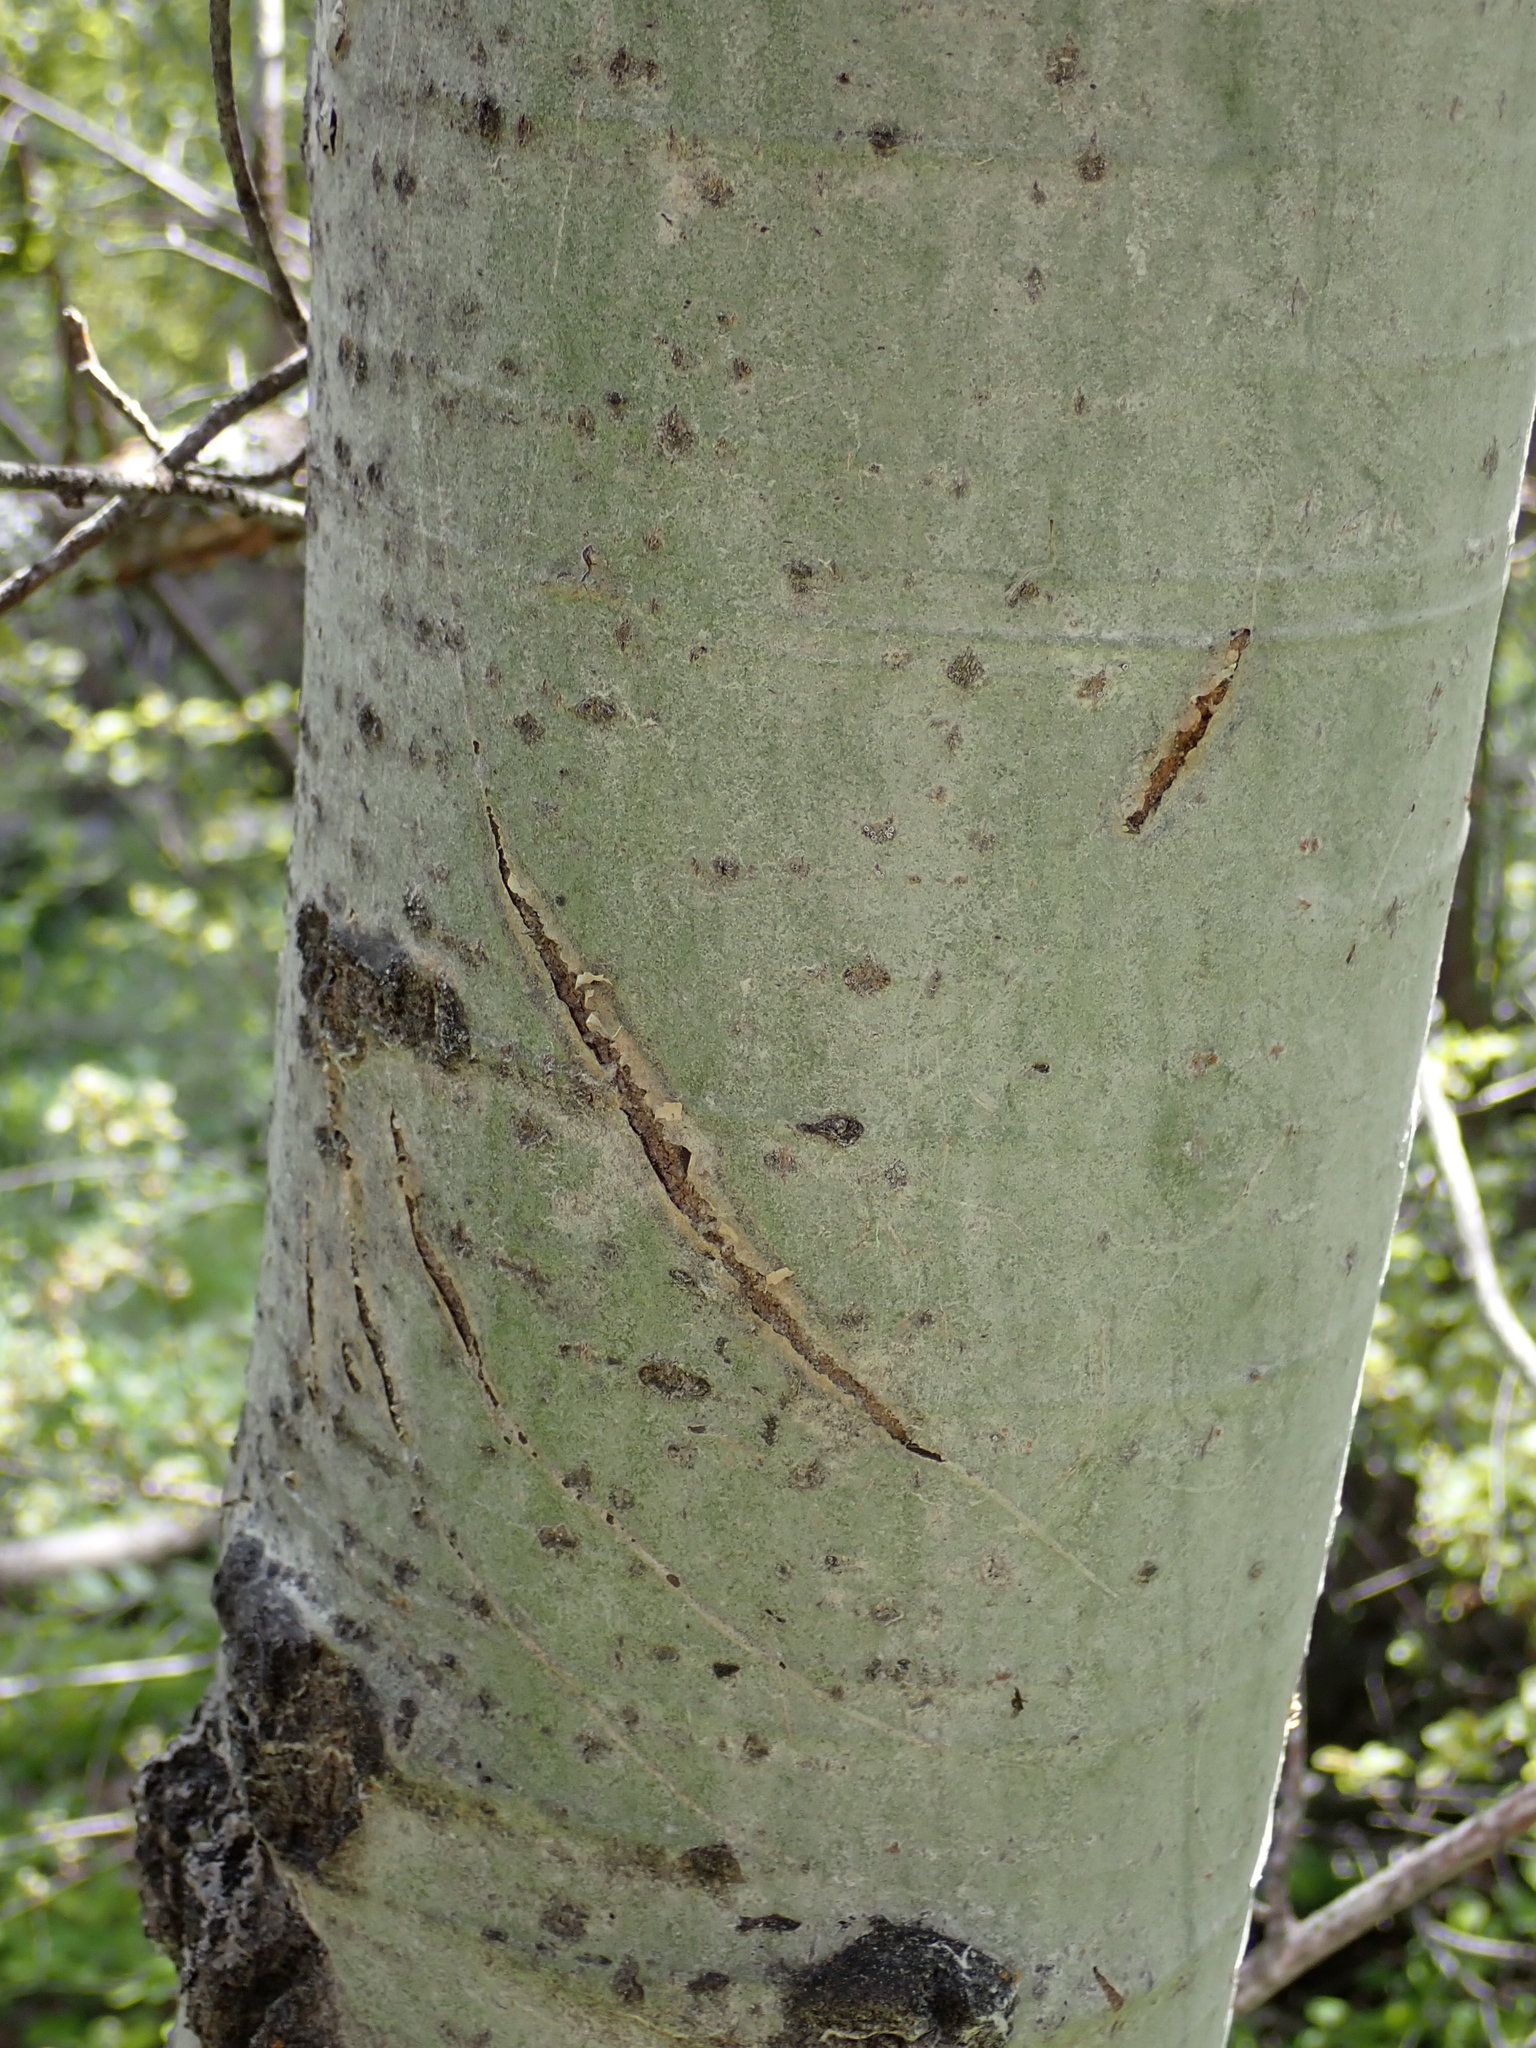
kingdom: Plantae
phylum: Tracheophyta
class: Magnoliopsida
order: Malpighiales
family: Salicaceae
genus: Populus
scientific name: Populus tremuloides
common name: Quaking aspen
